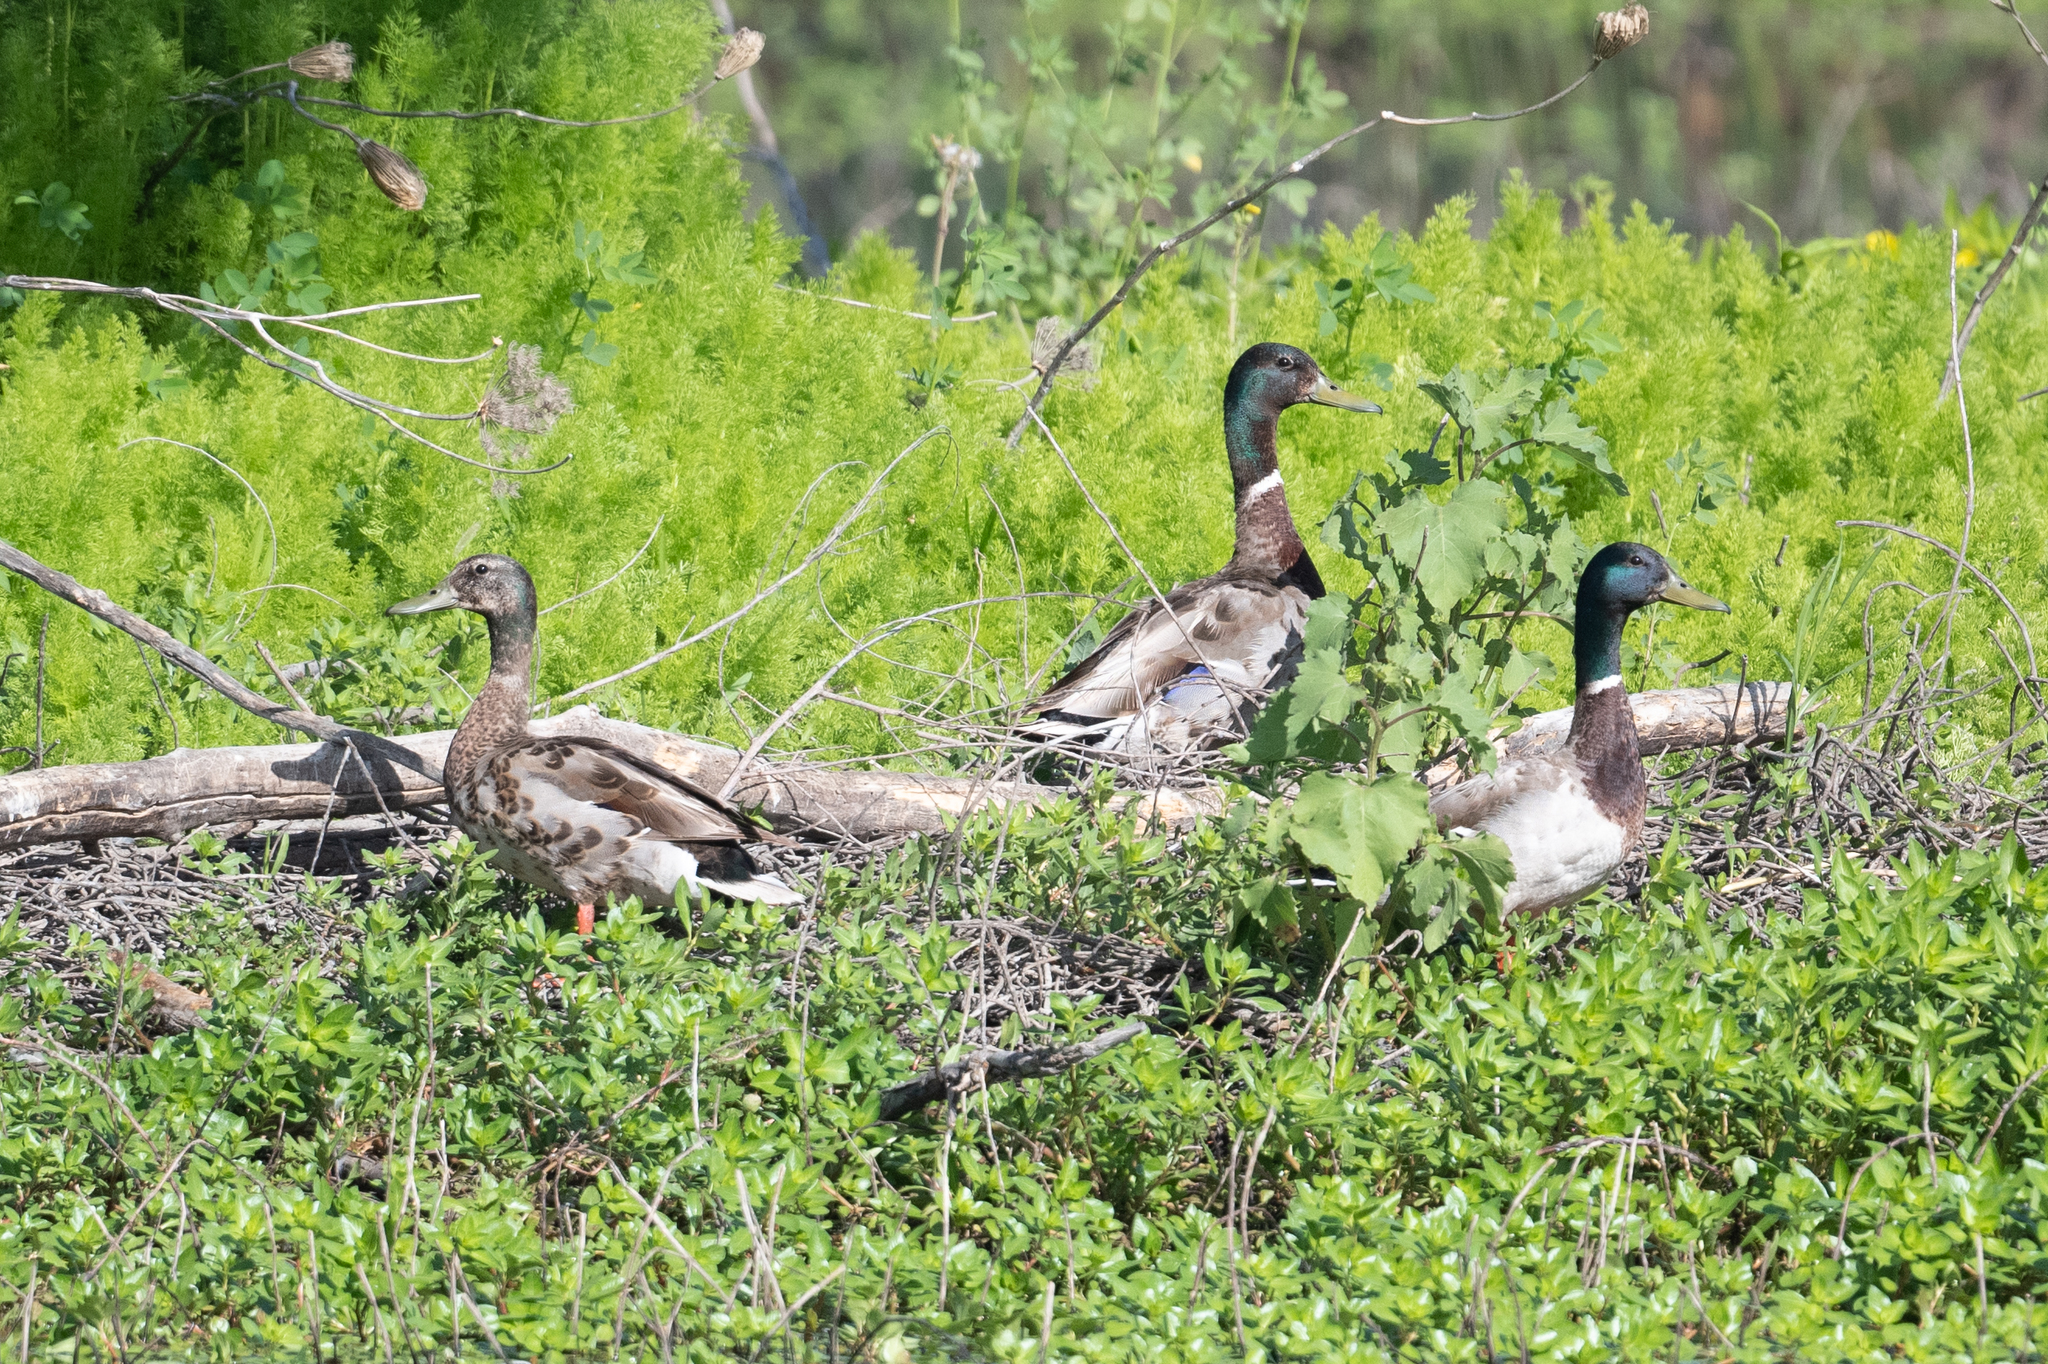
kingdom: Animalia
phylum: Chordata
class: Aves
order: Anseriformes
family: Anatidae
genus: Anas
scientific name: Anas platyrhynchos
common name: Mallard
